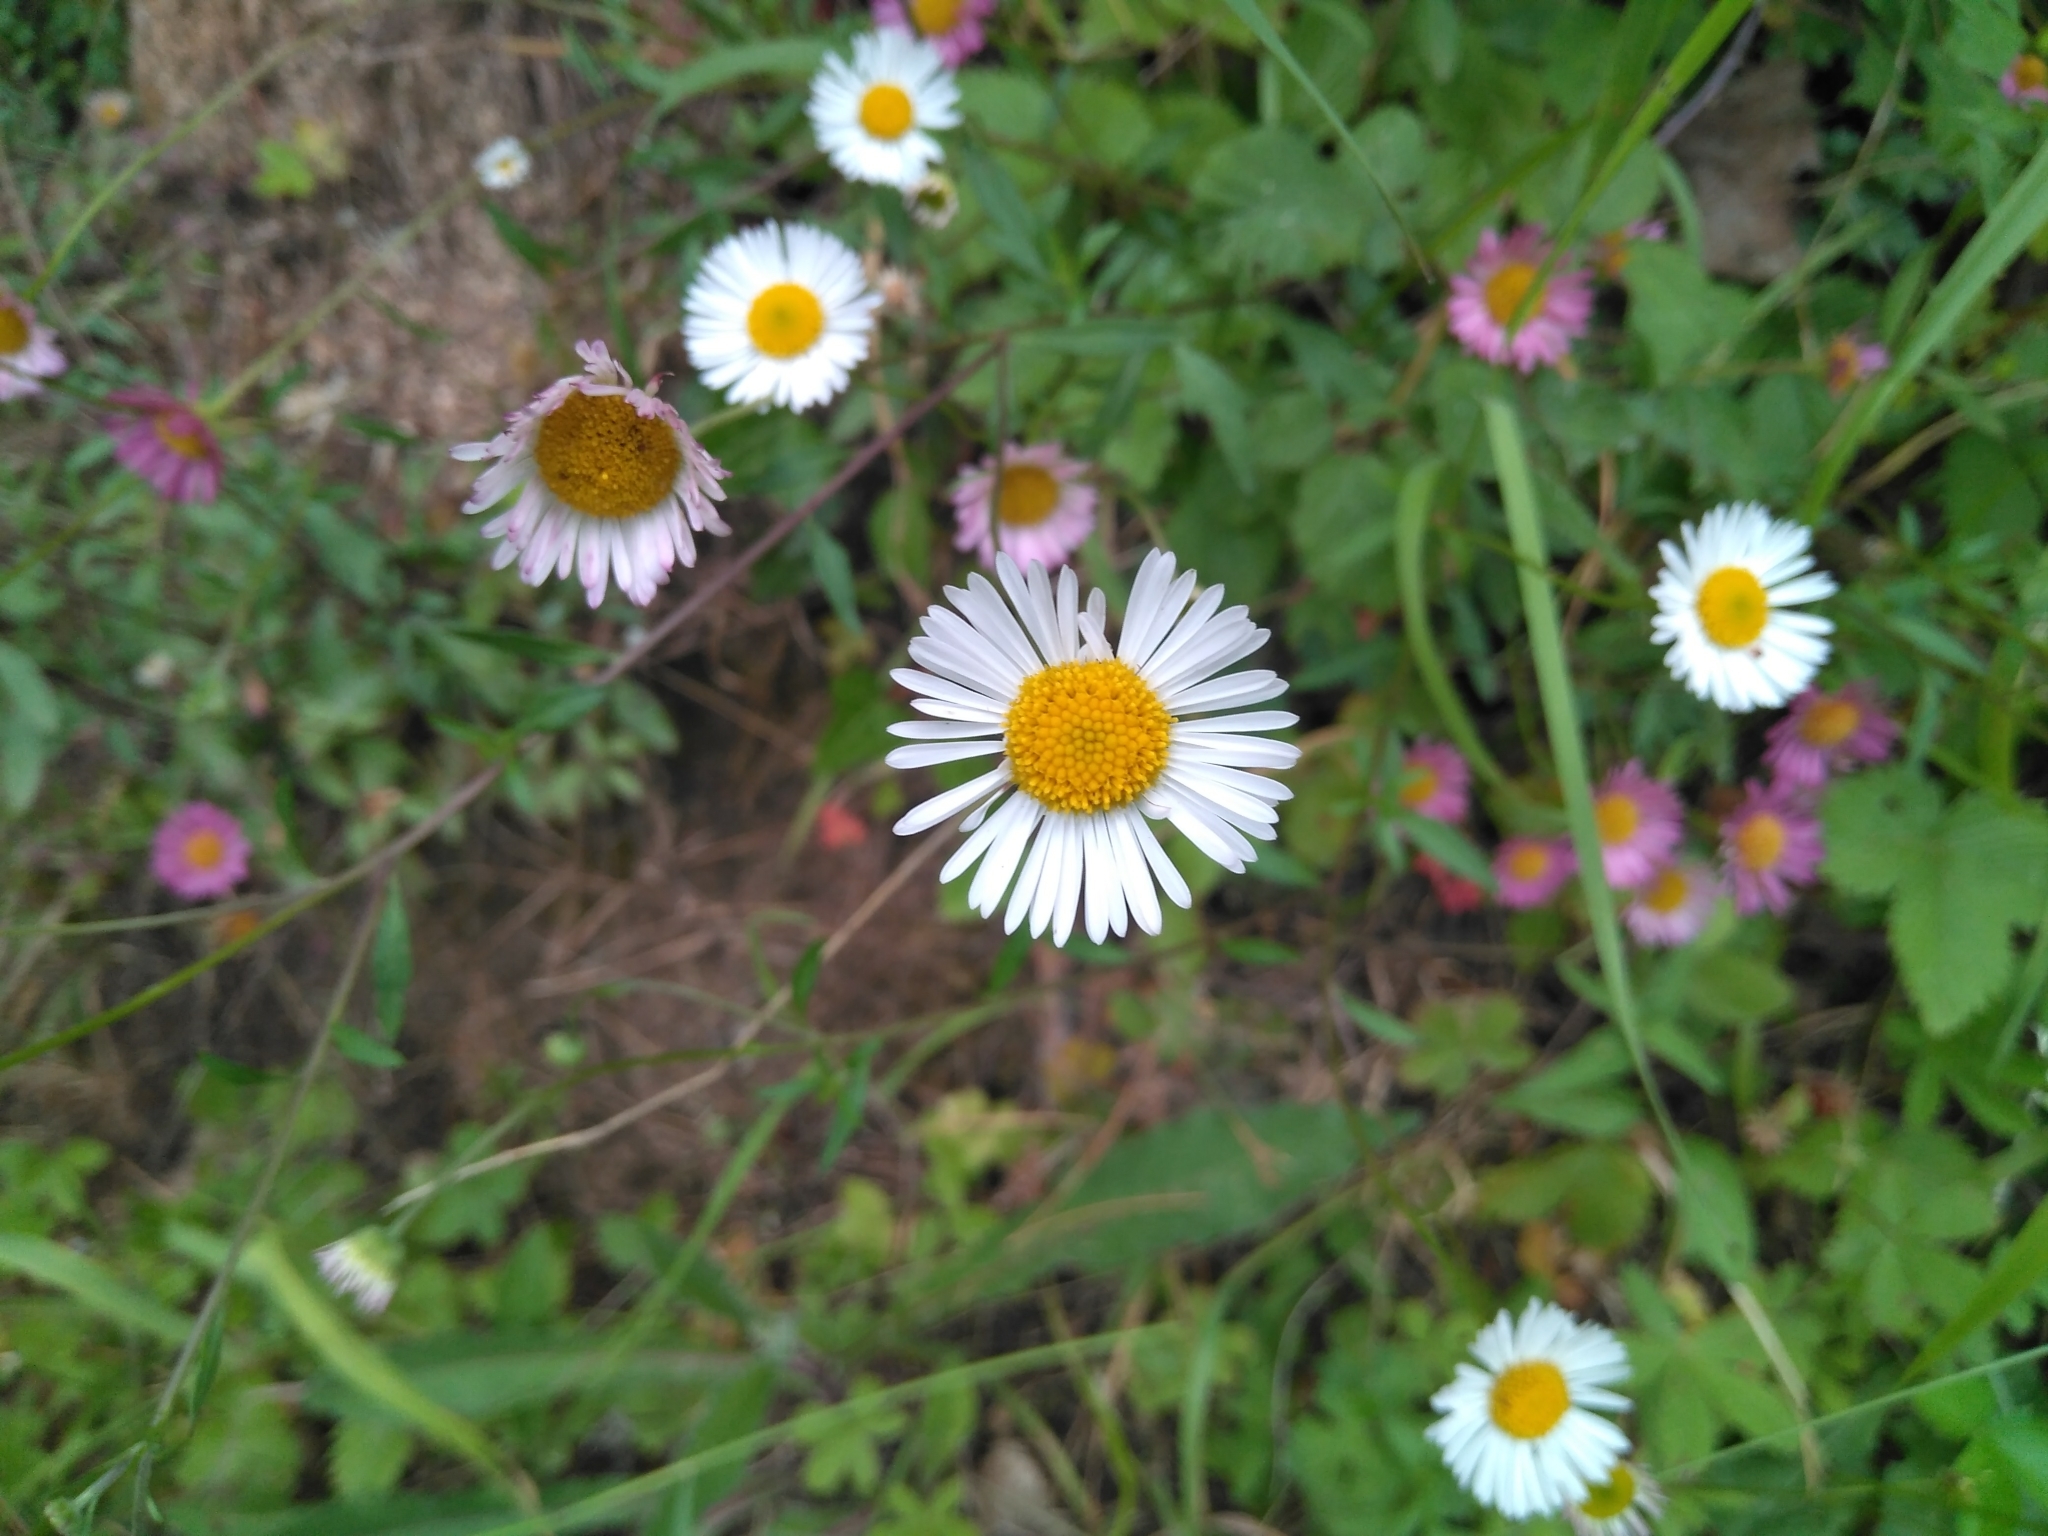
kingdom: Plantae
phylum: Tracheophyta
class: Magnoliopsida
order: Asterales
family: Asteraceae
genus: Erigeron
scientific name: Erigeron karvinskianus
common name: Mexican fleabane
